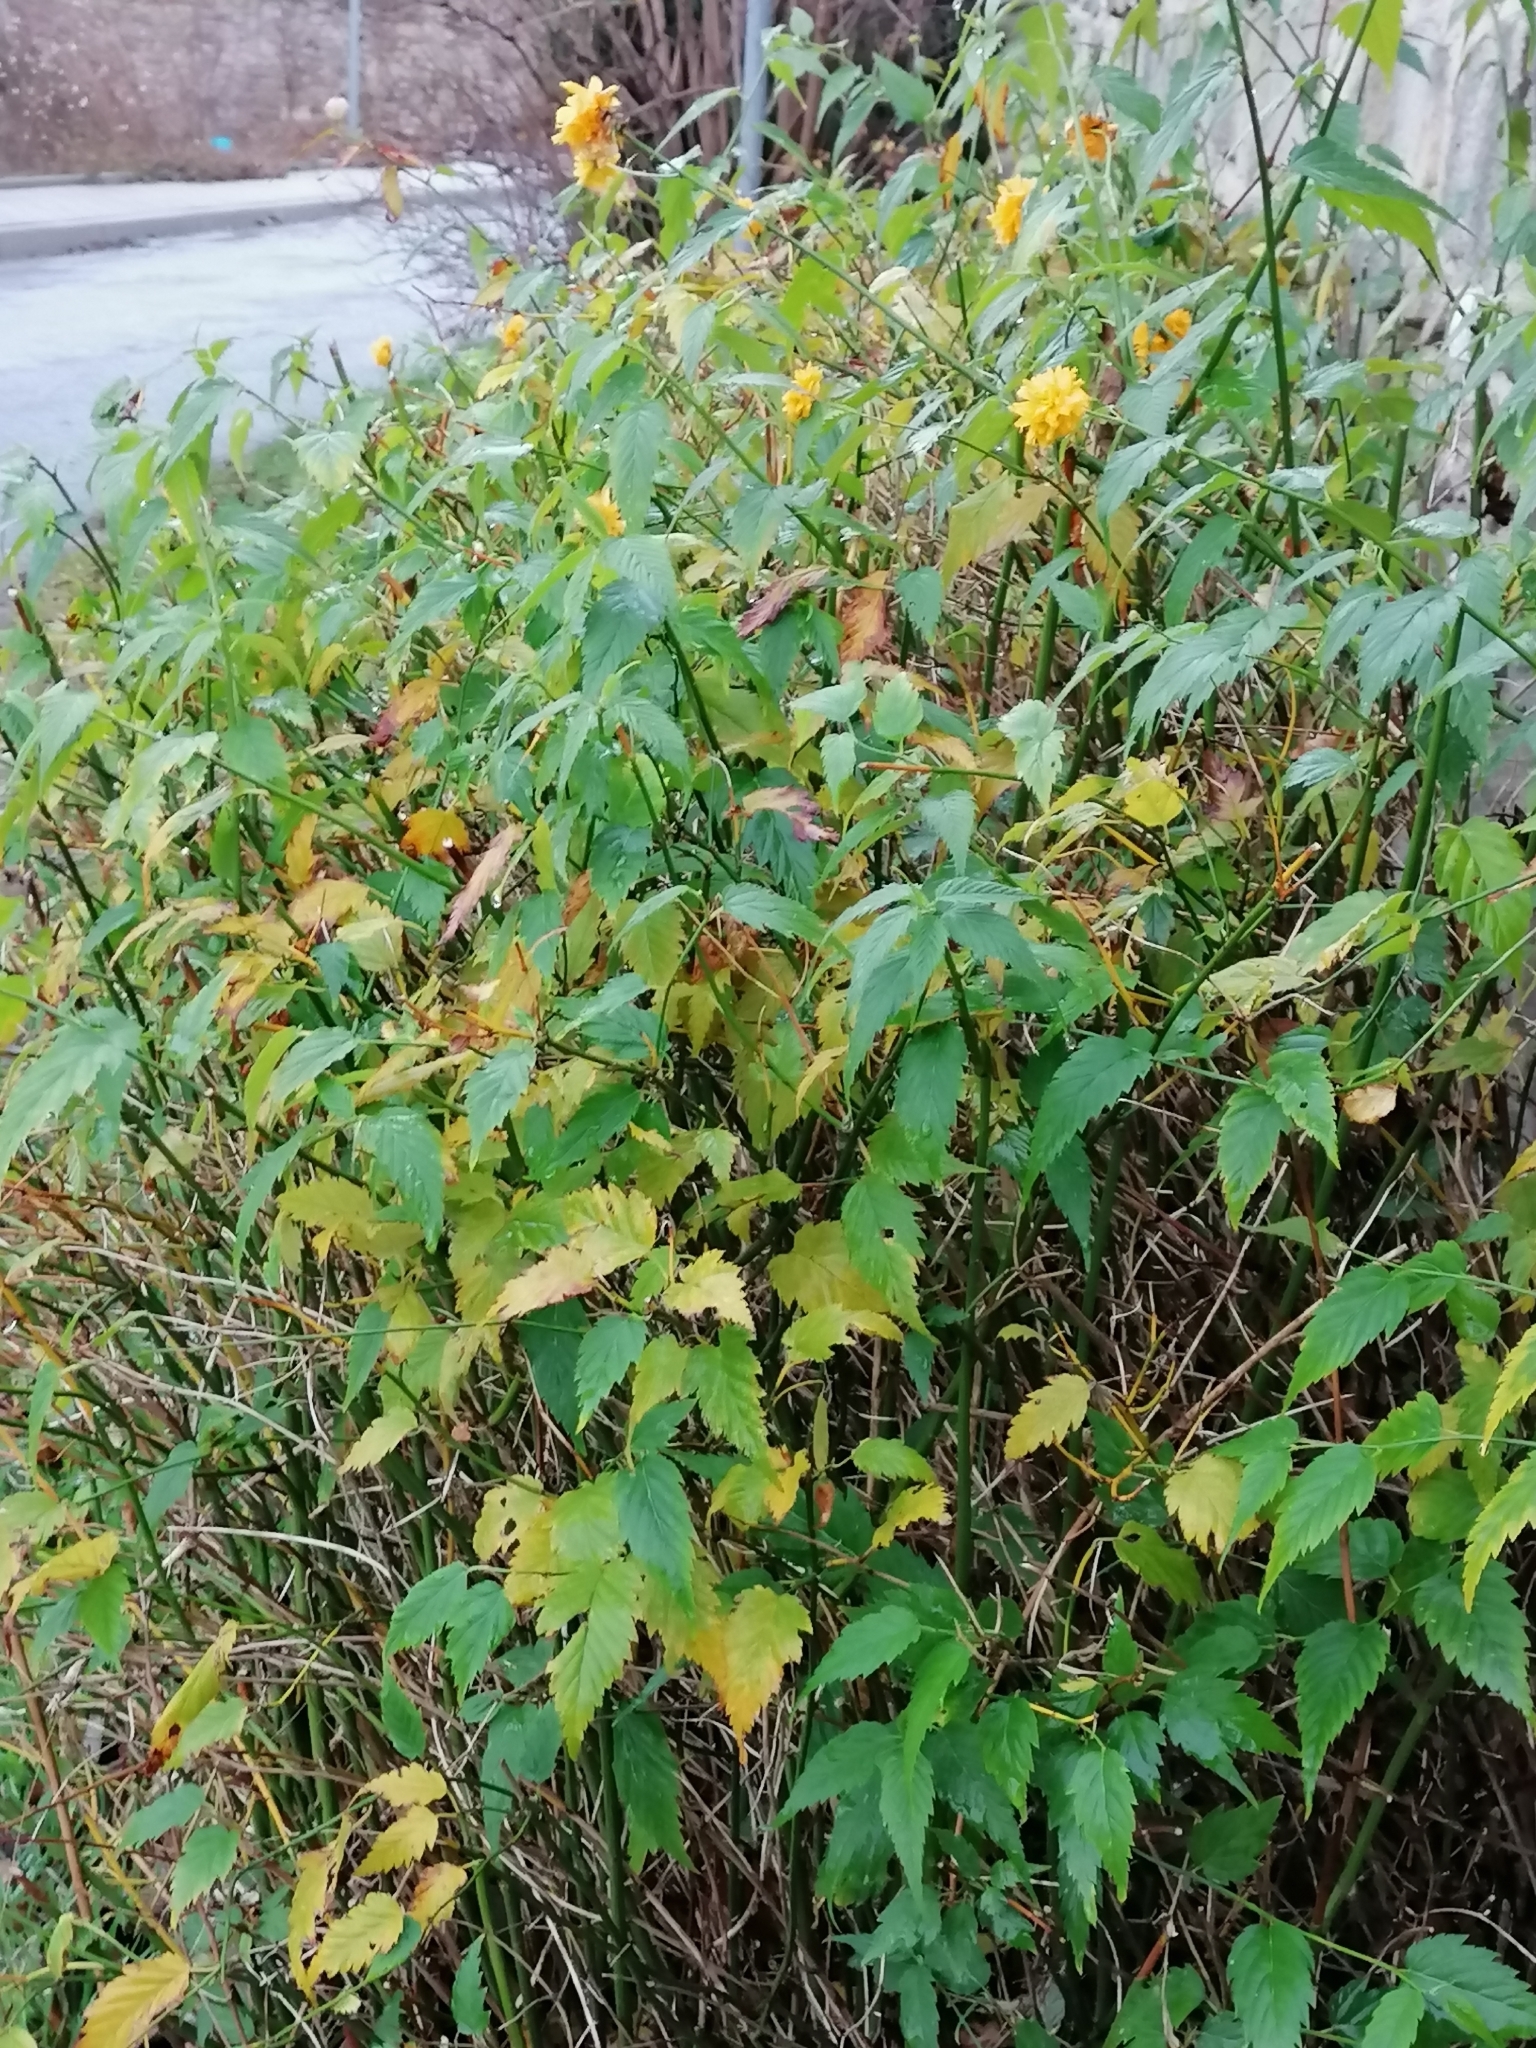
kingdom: Plantae
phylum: Tracheophyta
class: Magnoliopsida
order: Rosales
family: Rosaceae
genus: Kerria
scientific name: Kerria japonica
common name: Japanese kerria
